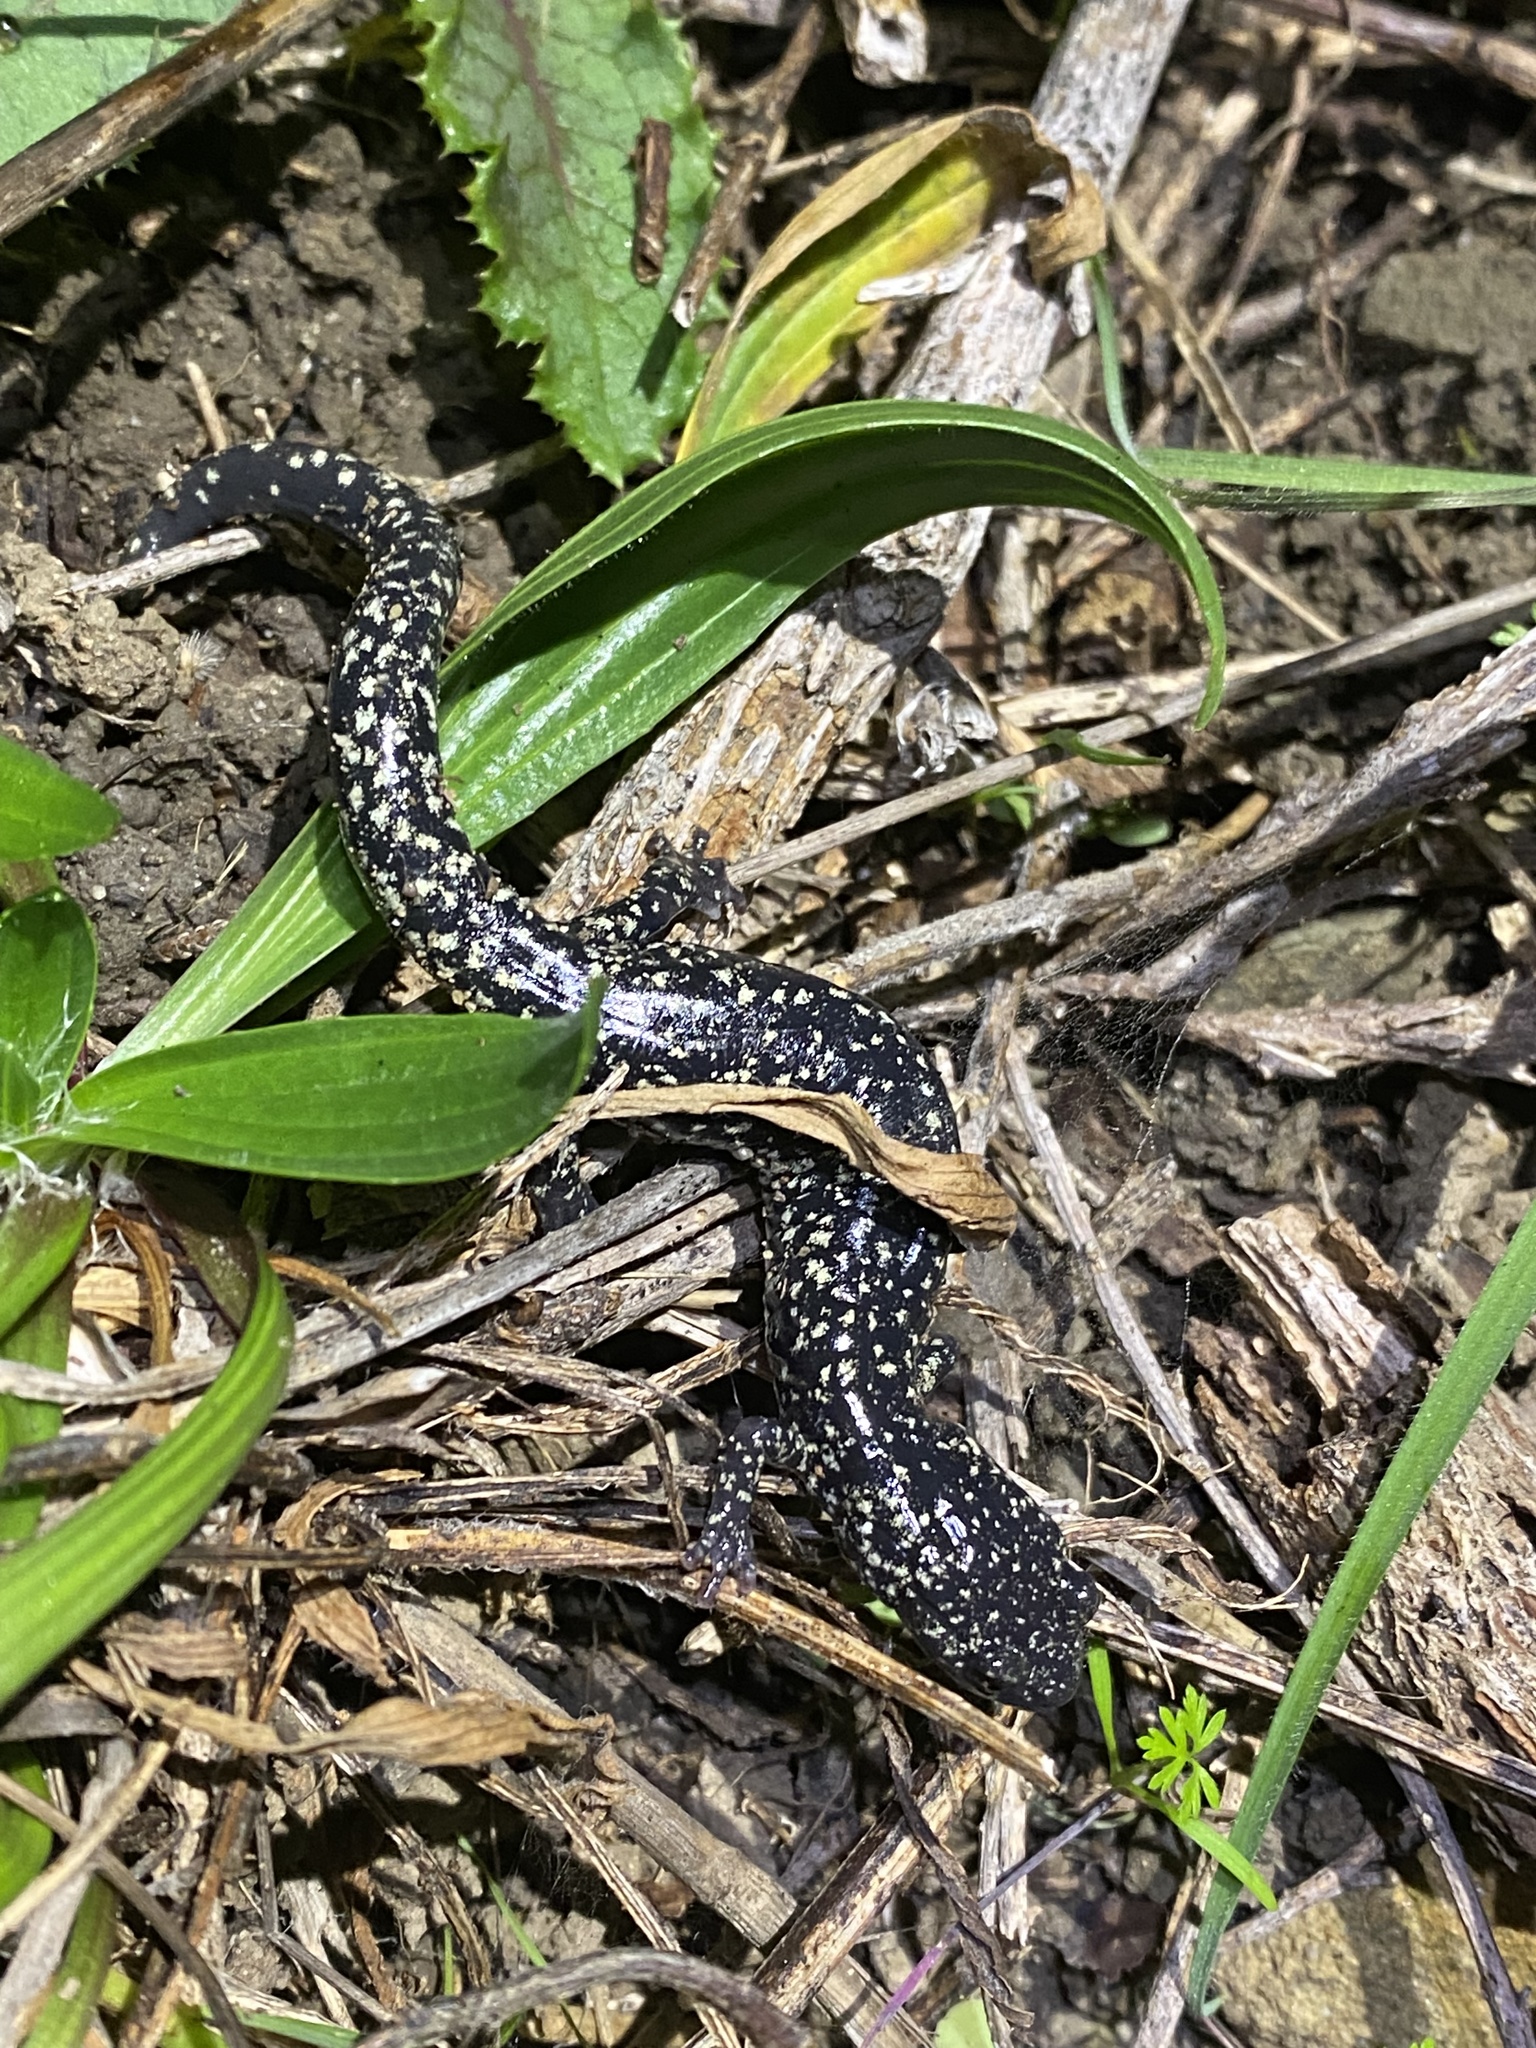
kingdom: Animalia
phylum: Chordata
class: Amphibia
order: Caudata
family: Plethodontidae
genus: Aneides
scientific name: Aneides flavipunctatus
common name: Black salamander
